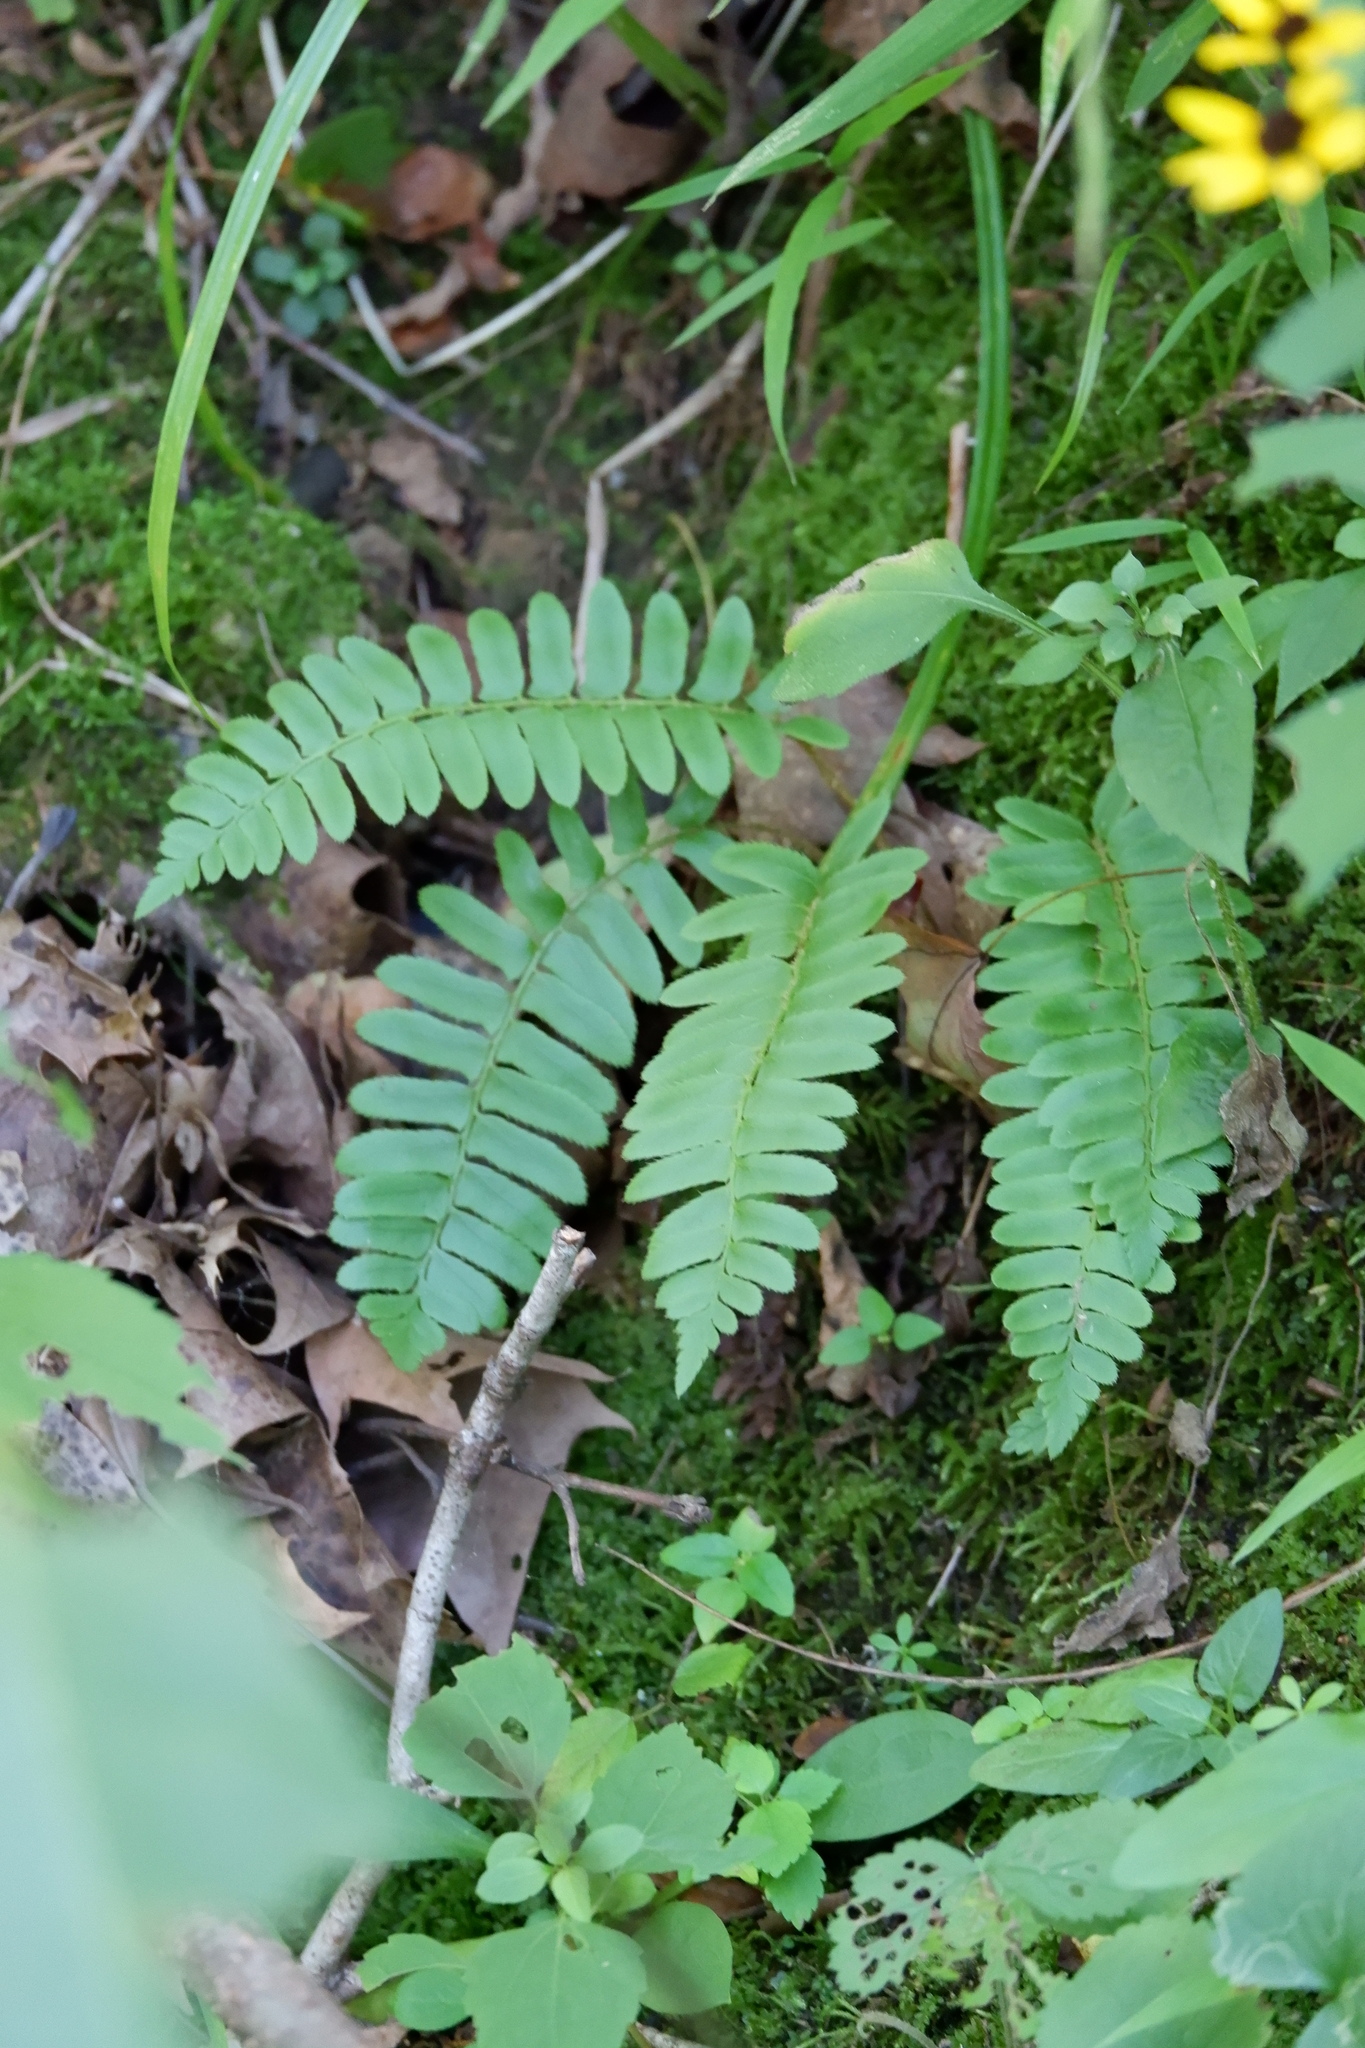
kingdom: Plantae
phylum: Tracheophyta
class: Polypodiopsida
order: Polypodiales
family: Dryopteridaceae
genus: Polystichum
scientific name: Polystichum acrostichoides
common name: Christmas fern
